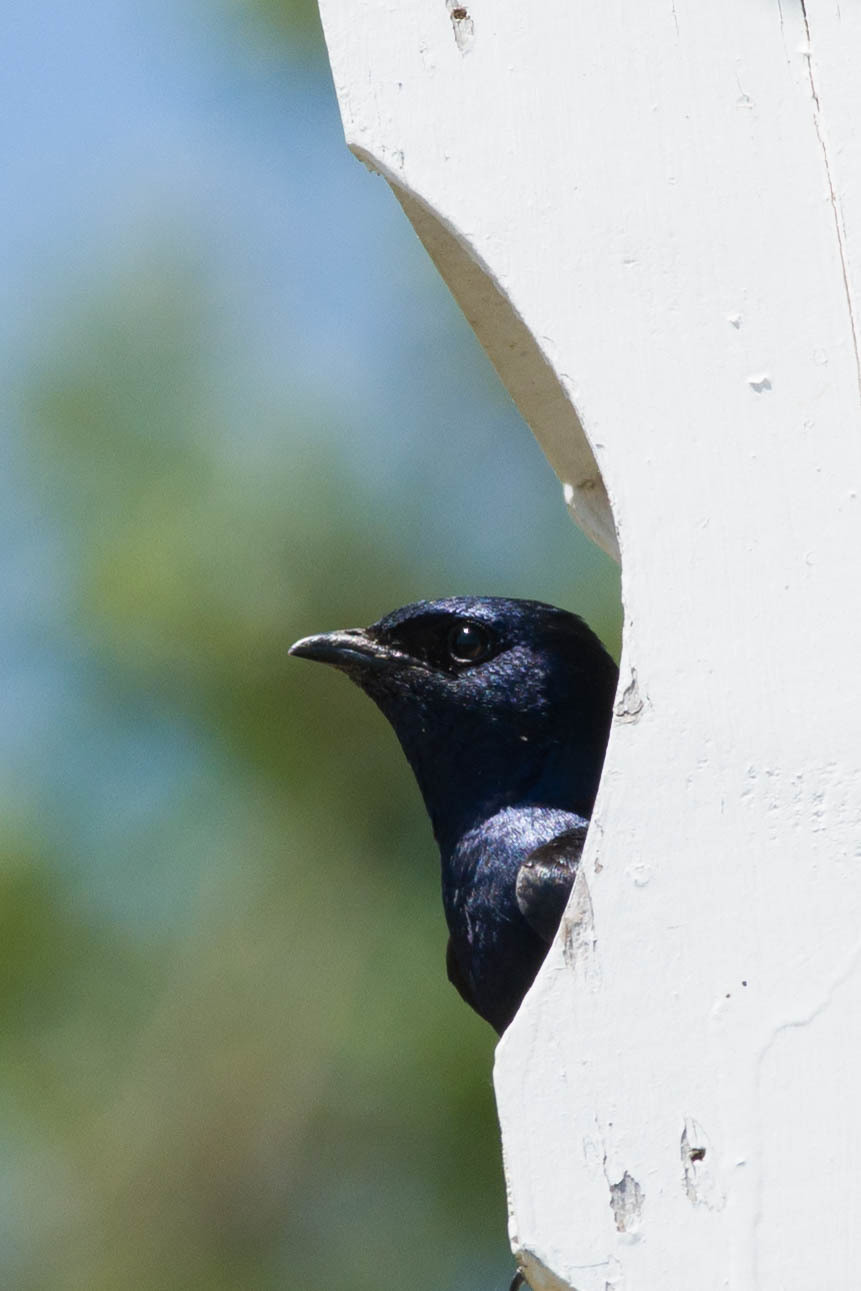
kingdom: Animalia
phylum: Chordata
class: Aves
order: Passeriformes
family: Hirundinidae
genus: Progne
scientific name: Progne subis
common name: Purple martin
